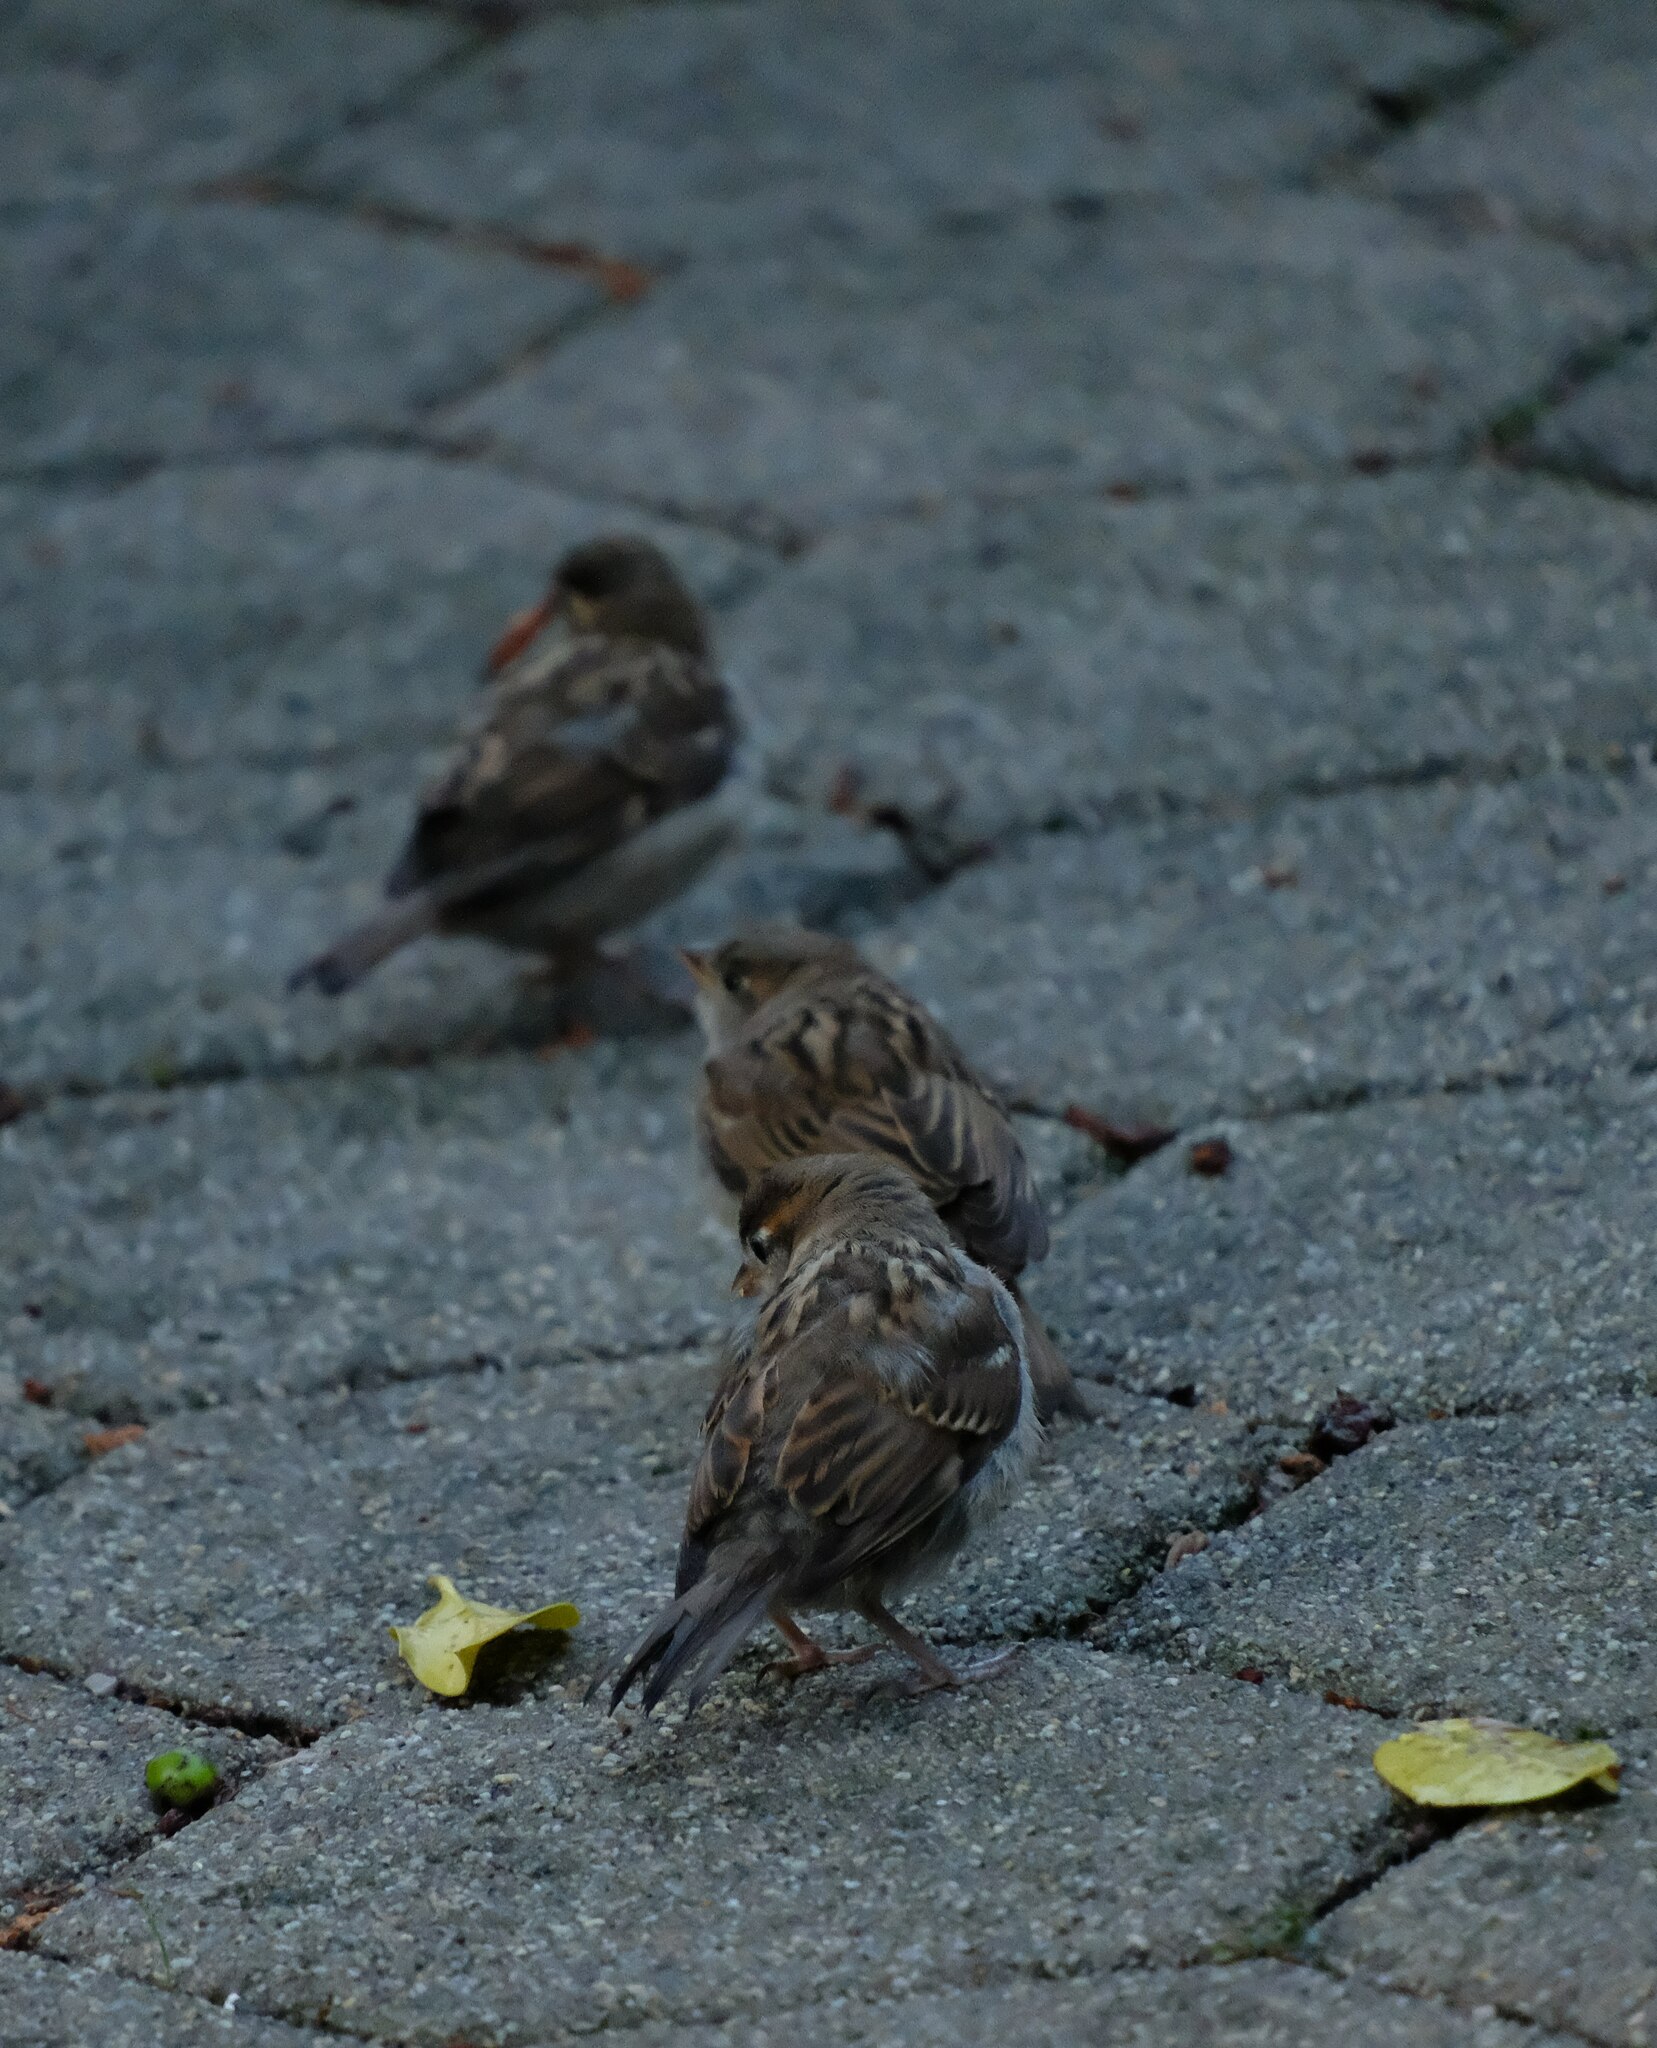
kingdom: Animalia
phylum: Chordata
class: Aves
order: Passeriformes
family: Passeridae
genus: Passer
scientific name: Passer domesticus
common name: House sparrow
